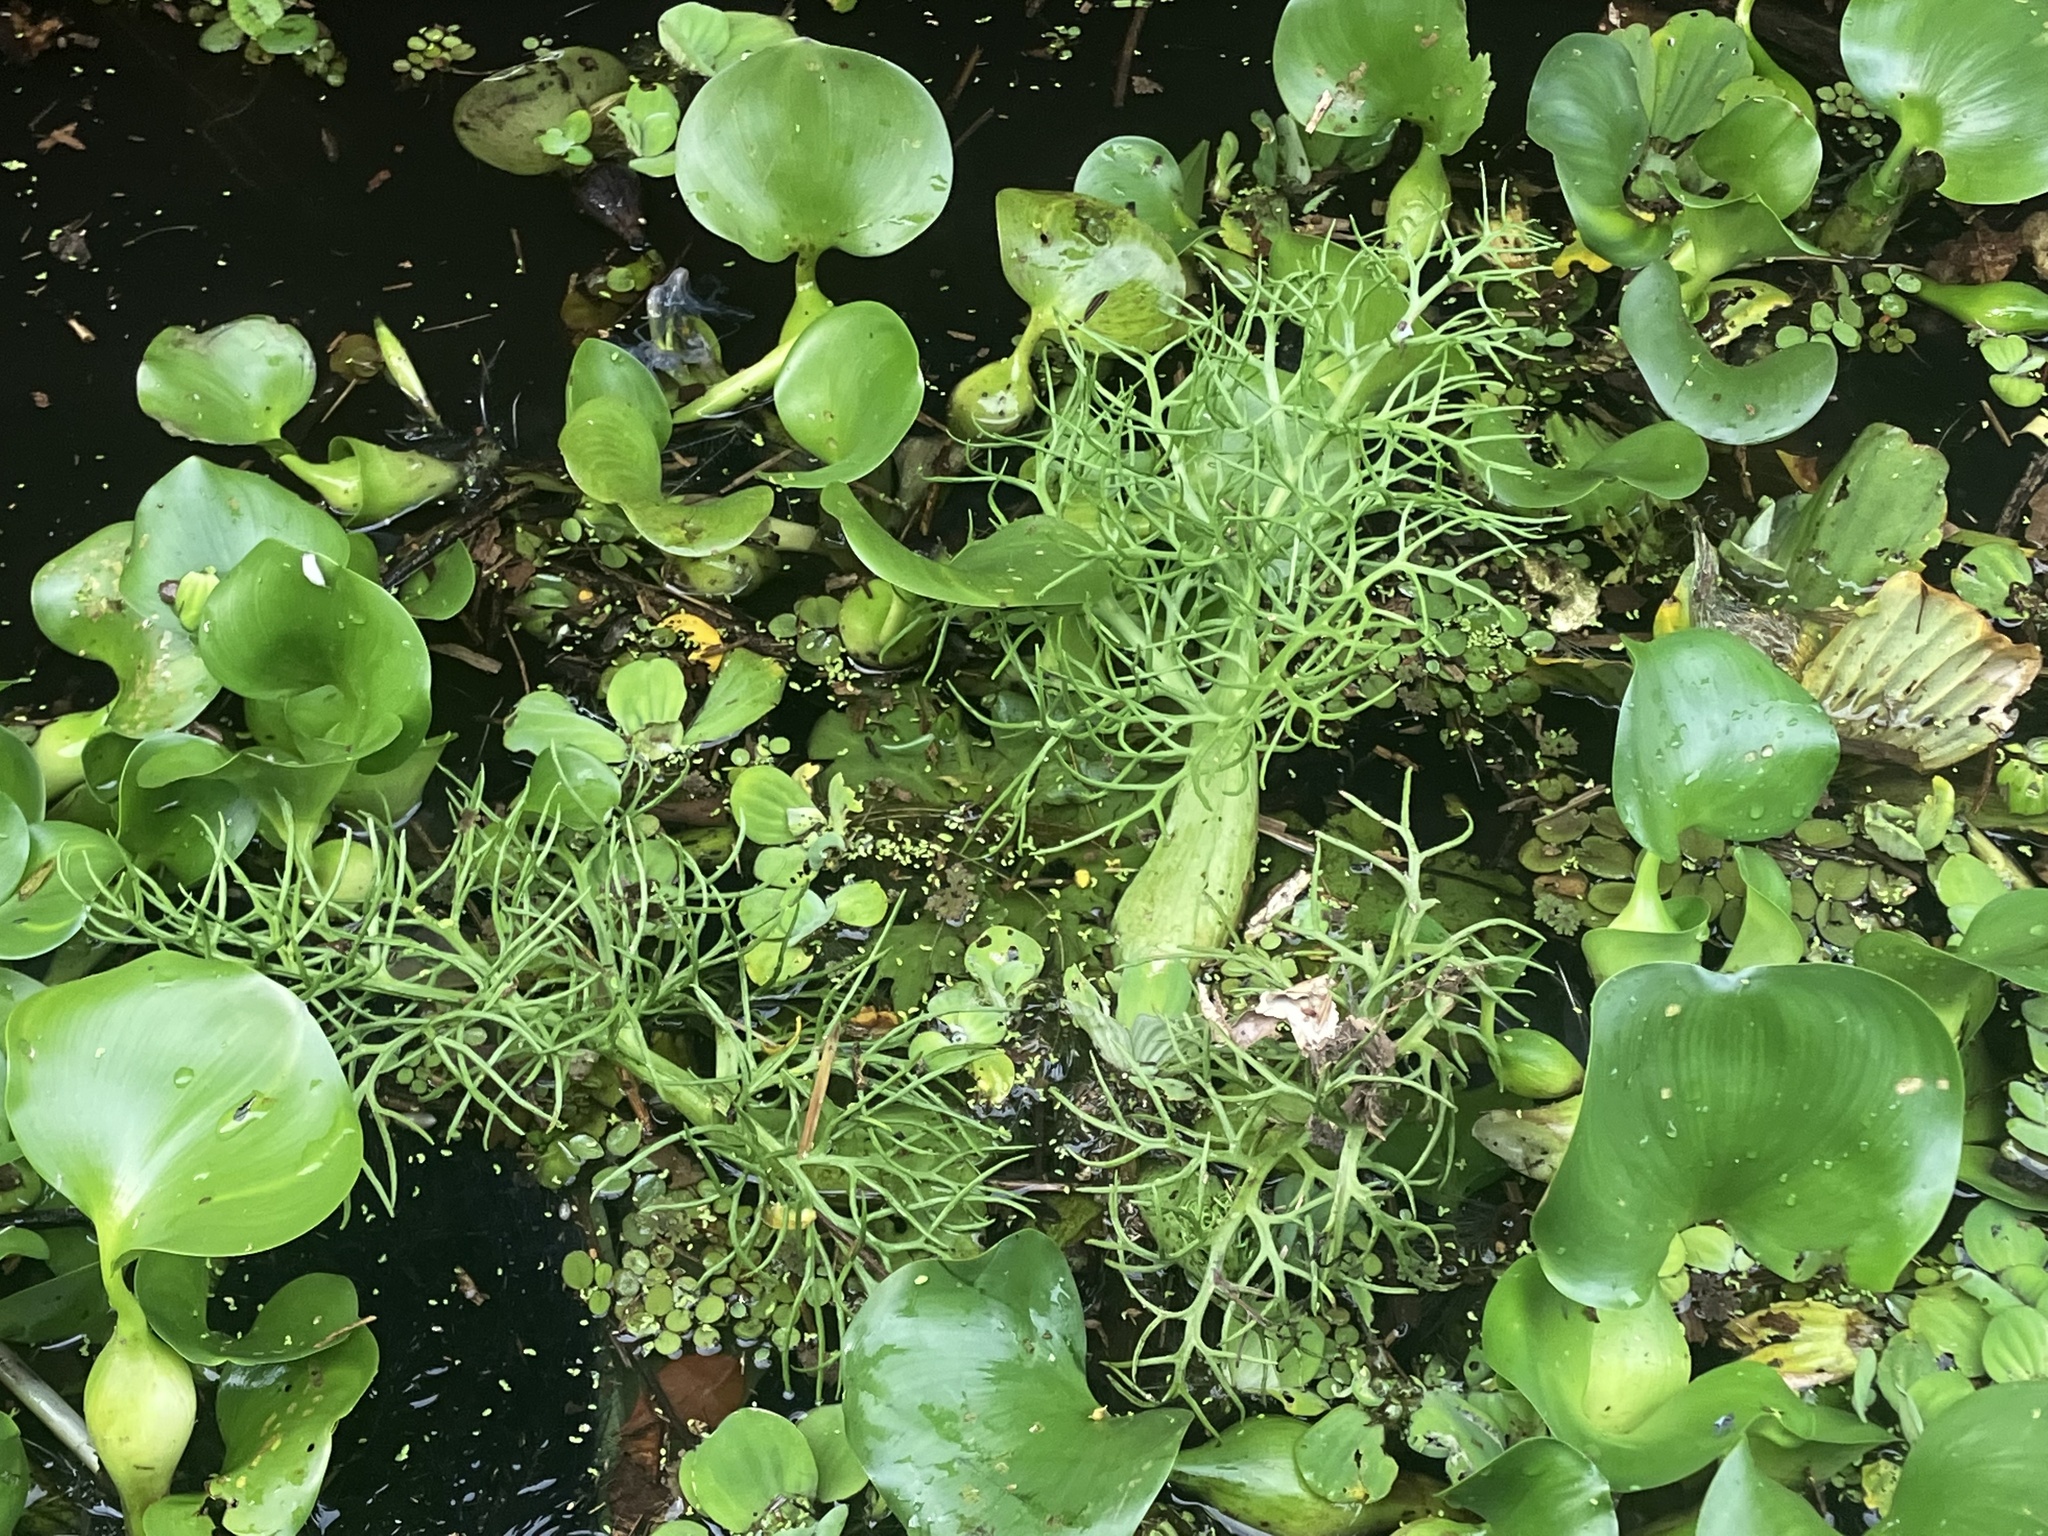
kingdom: Plantae
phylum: Tracheophyta
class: Polypodiopsida
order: Polypodiales
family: Pteridaceae
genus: Ceratopteris
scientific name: Ceratopteris pteridoides
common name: Floating fern
